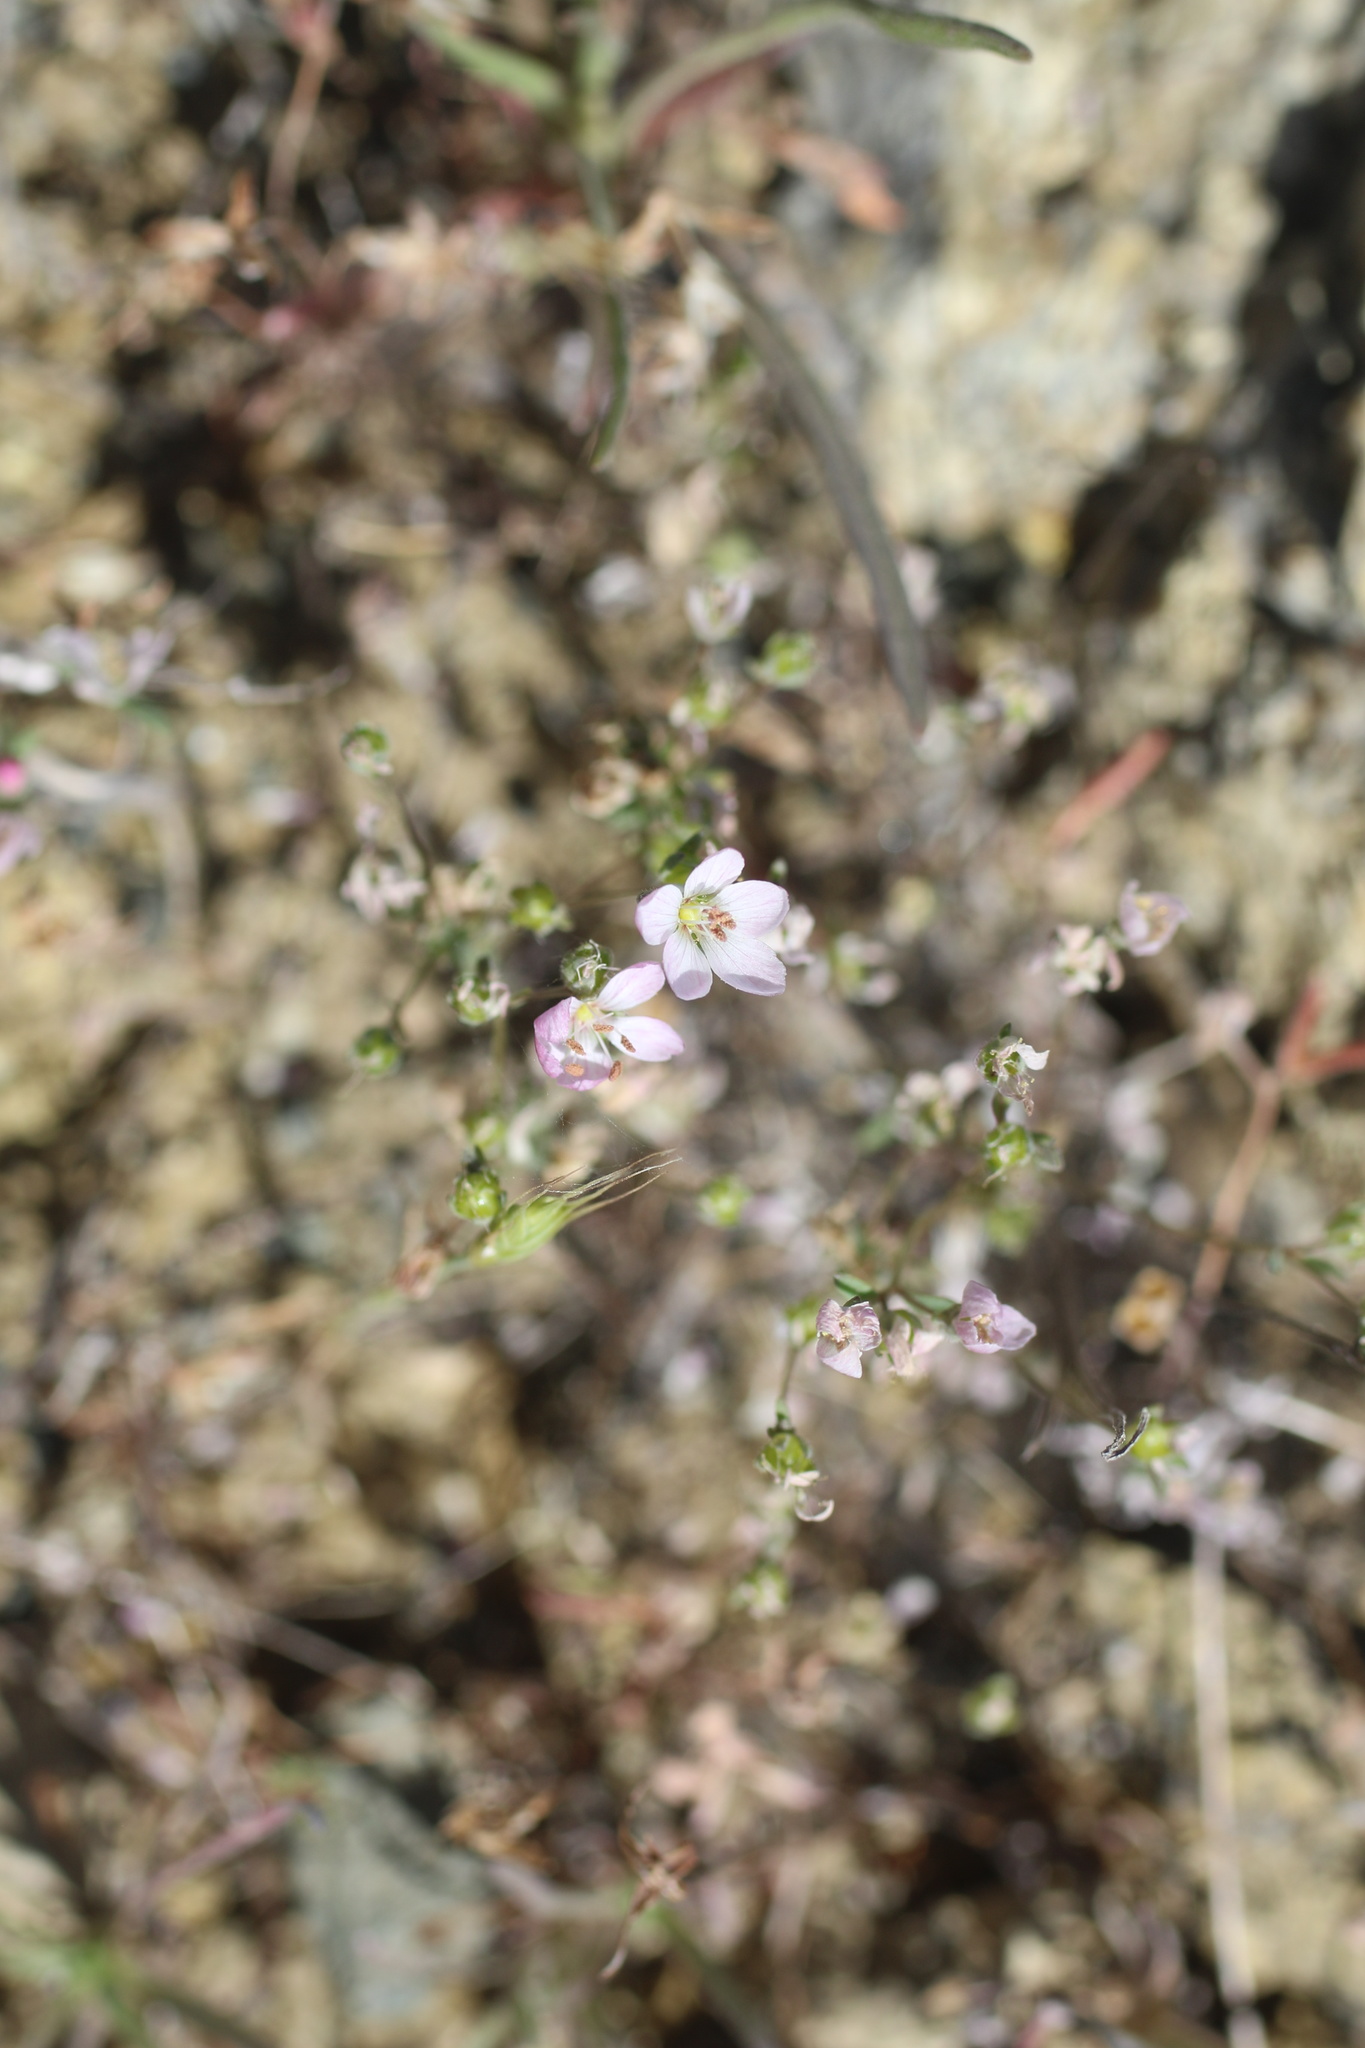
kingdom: Plantae
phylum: Tracheophyta
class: Magnoliopsida
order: Malpighiales
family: Linaceae
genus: Hesperolinon
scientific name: Hesperolinon congestum
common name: Marin dwarf-flax
